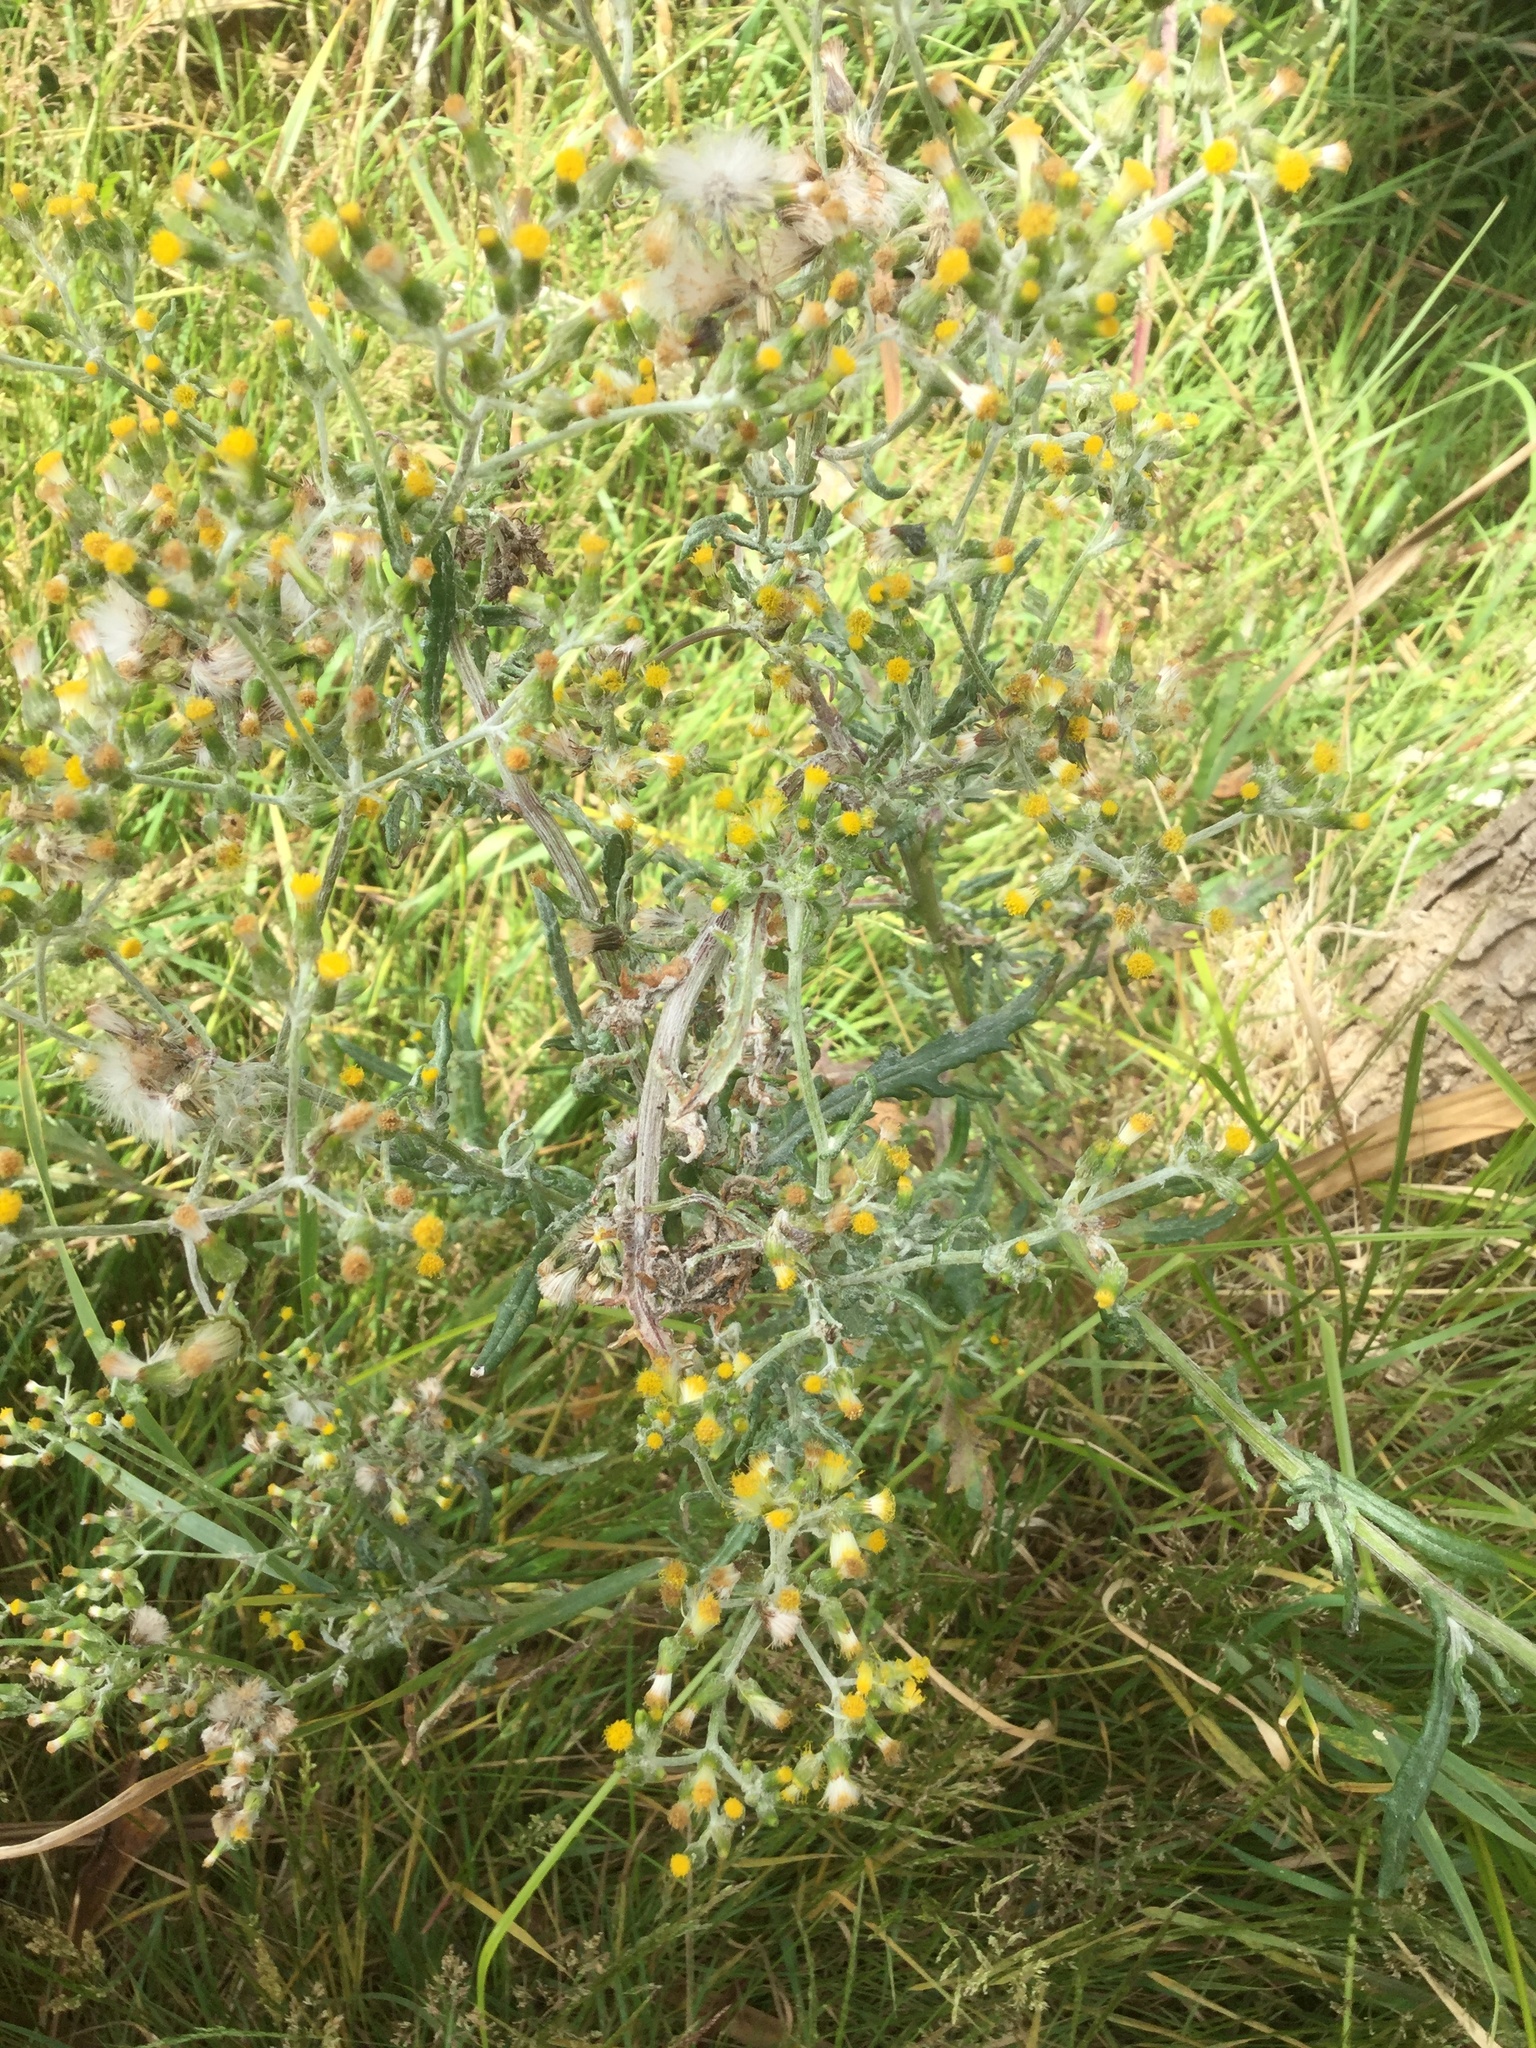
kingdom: Plantae
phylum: Tracheophyta
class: Magnoliopsida
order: Asterales
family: Asteraceae
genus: Senecio
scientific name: Senecio vulgaris
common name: Old-man-in-the-spring
